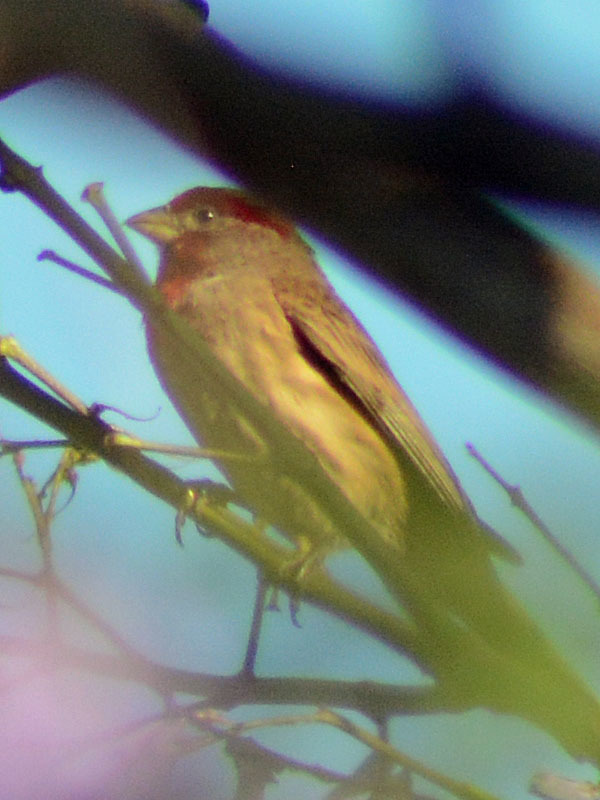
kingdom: Animalia
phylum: Chordata
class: Aves
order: Passeriformes
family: Fringillidae
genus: Haemorhous
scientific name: Haemorhous mexicanus
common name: House finch
